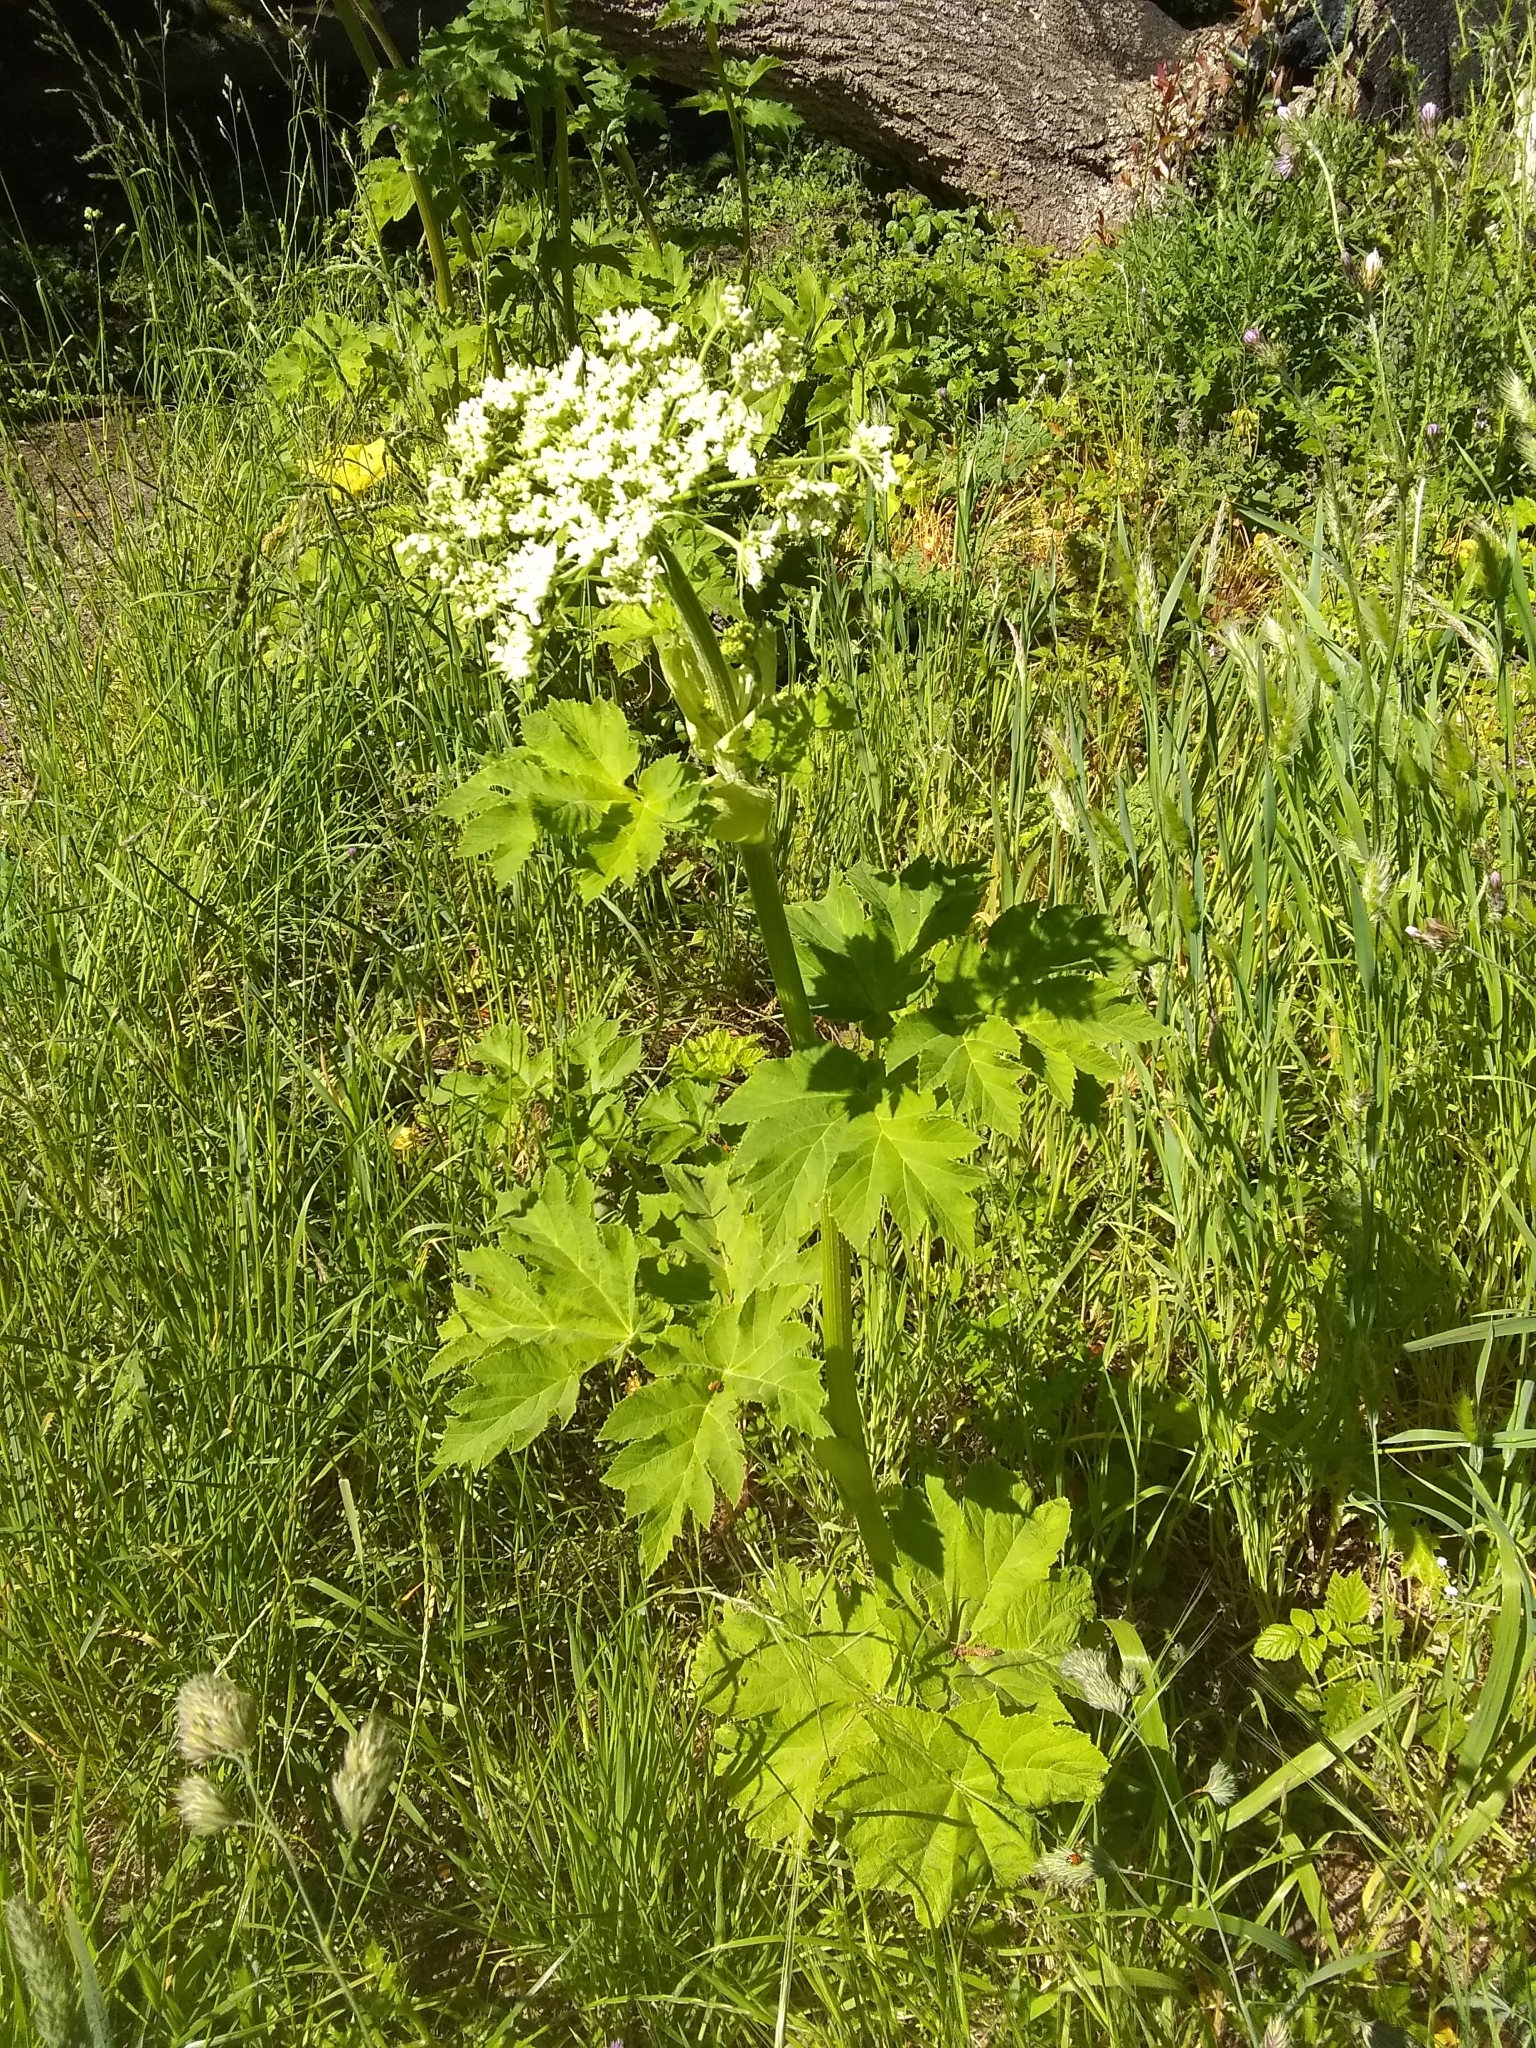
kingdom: Plantae
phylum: Tracheophyta
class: Magnoliopsida
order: Apiales
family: Apiaceae
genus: Heracleum
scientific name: Heracleum maximum
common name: American cow parsnip
